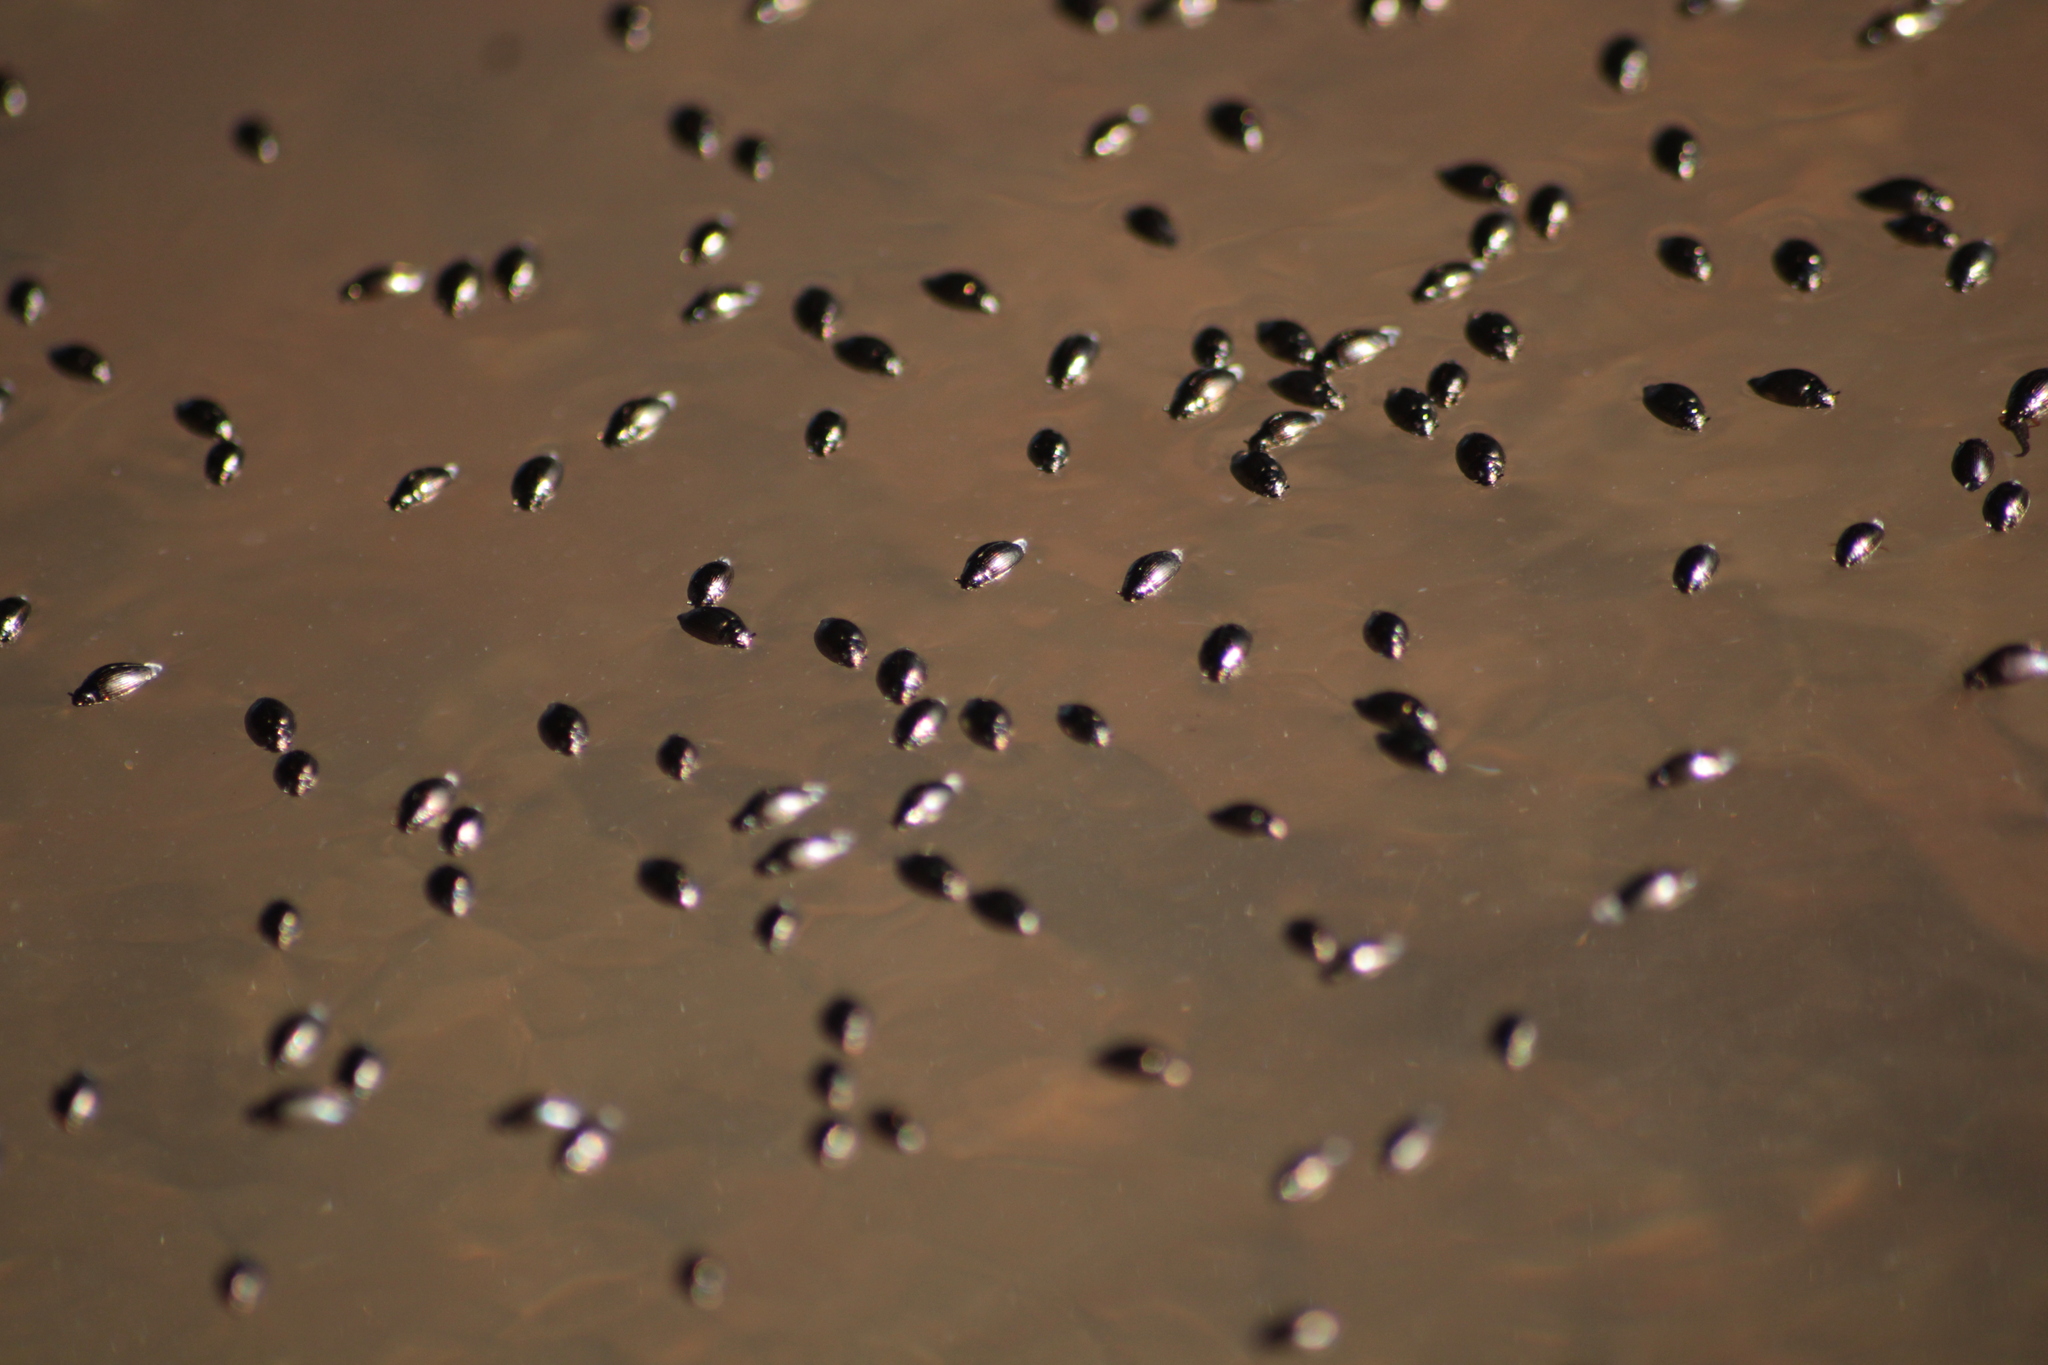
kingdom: Animalia
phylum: Arthropoda
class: Insecta
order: Coleoptera
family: Gyrinidae
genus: Gyrinus
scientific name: Gyrinus
